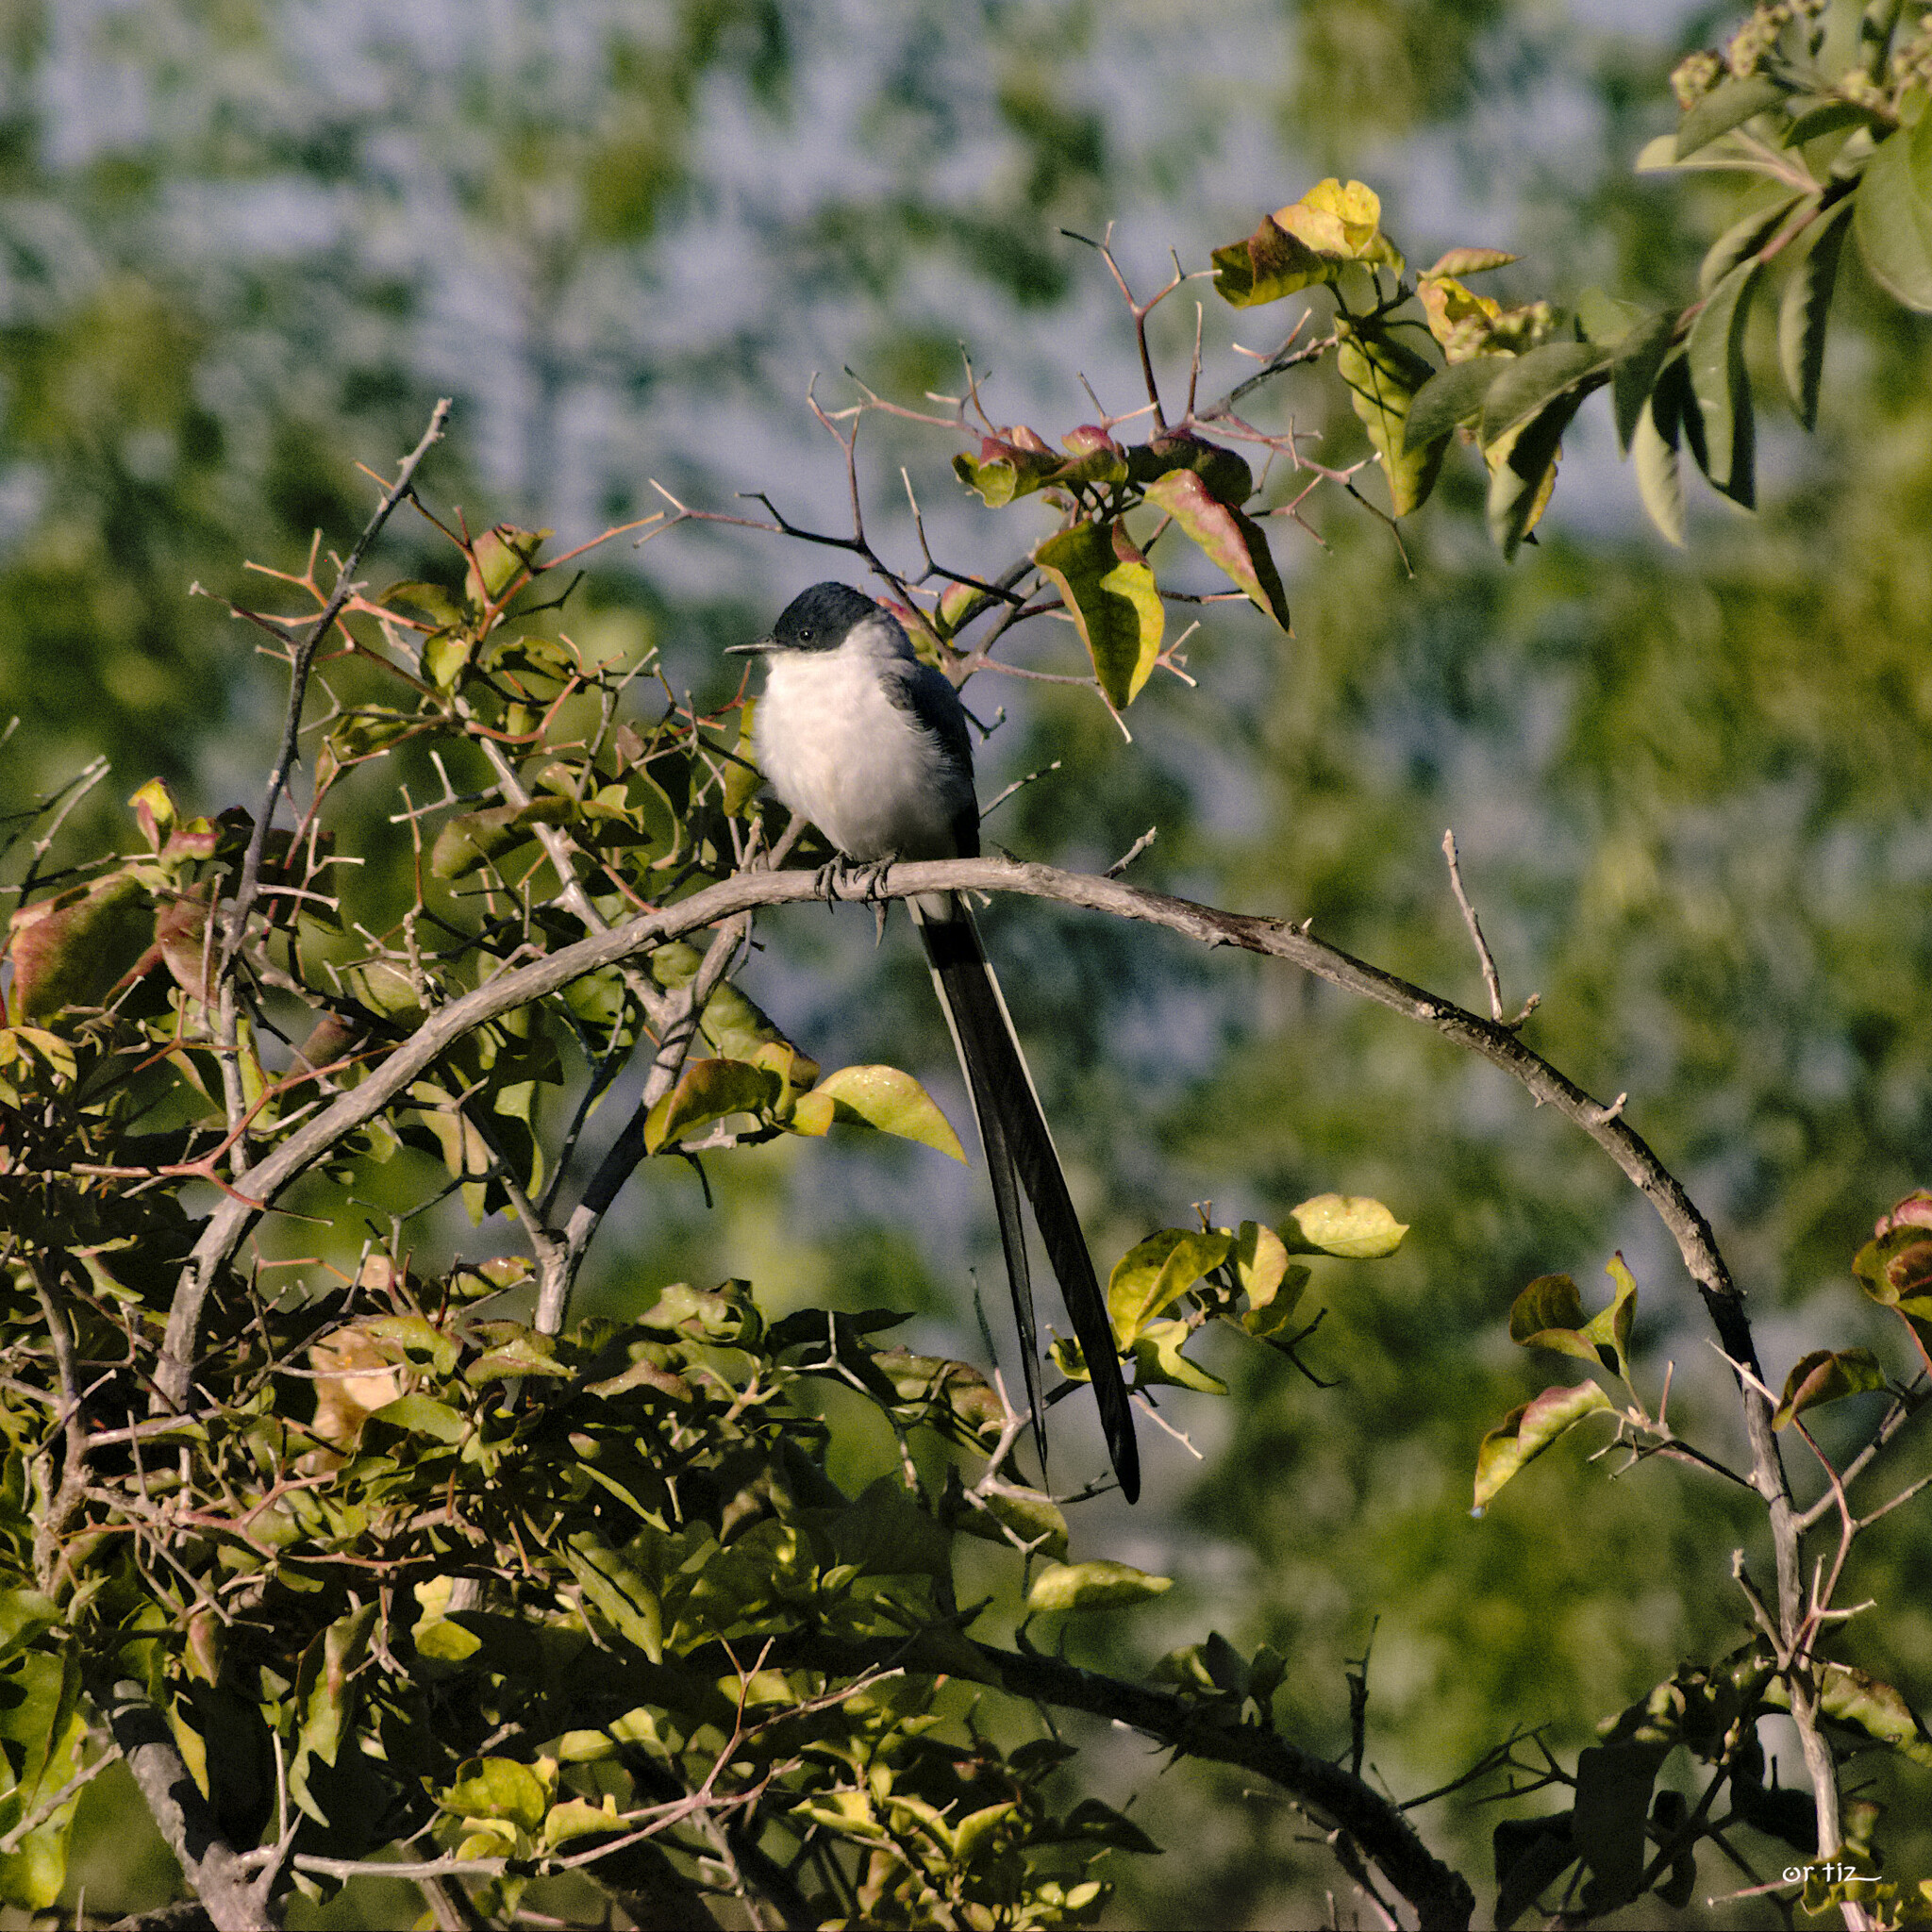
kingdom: Animalia
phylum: Chordata
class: Aves
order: Passeriformes
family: Tyrannidae
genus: Tyrannus
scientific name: Tyrannus savana
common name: Fork-tailed flycatcher
